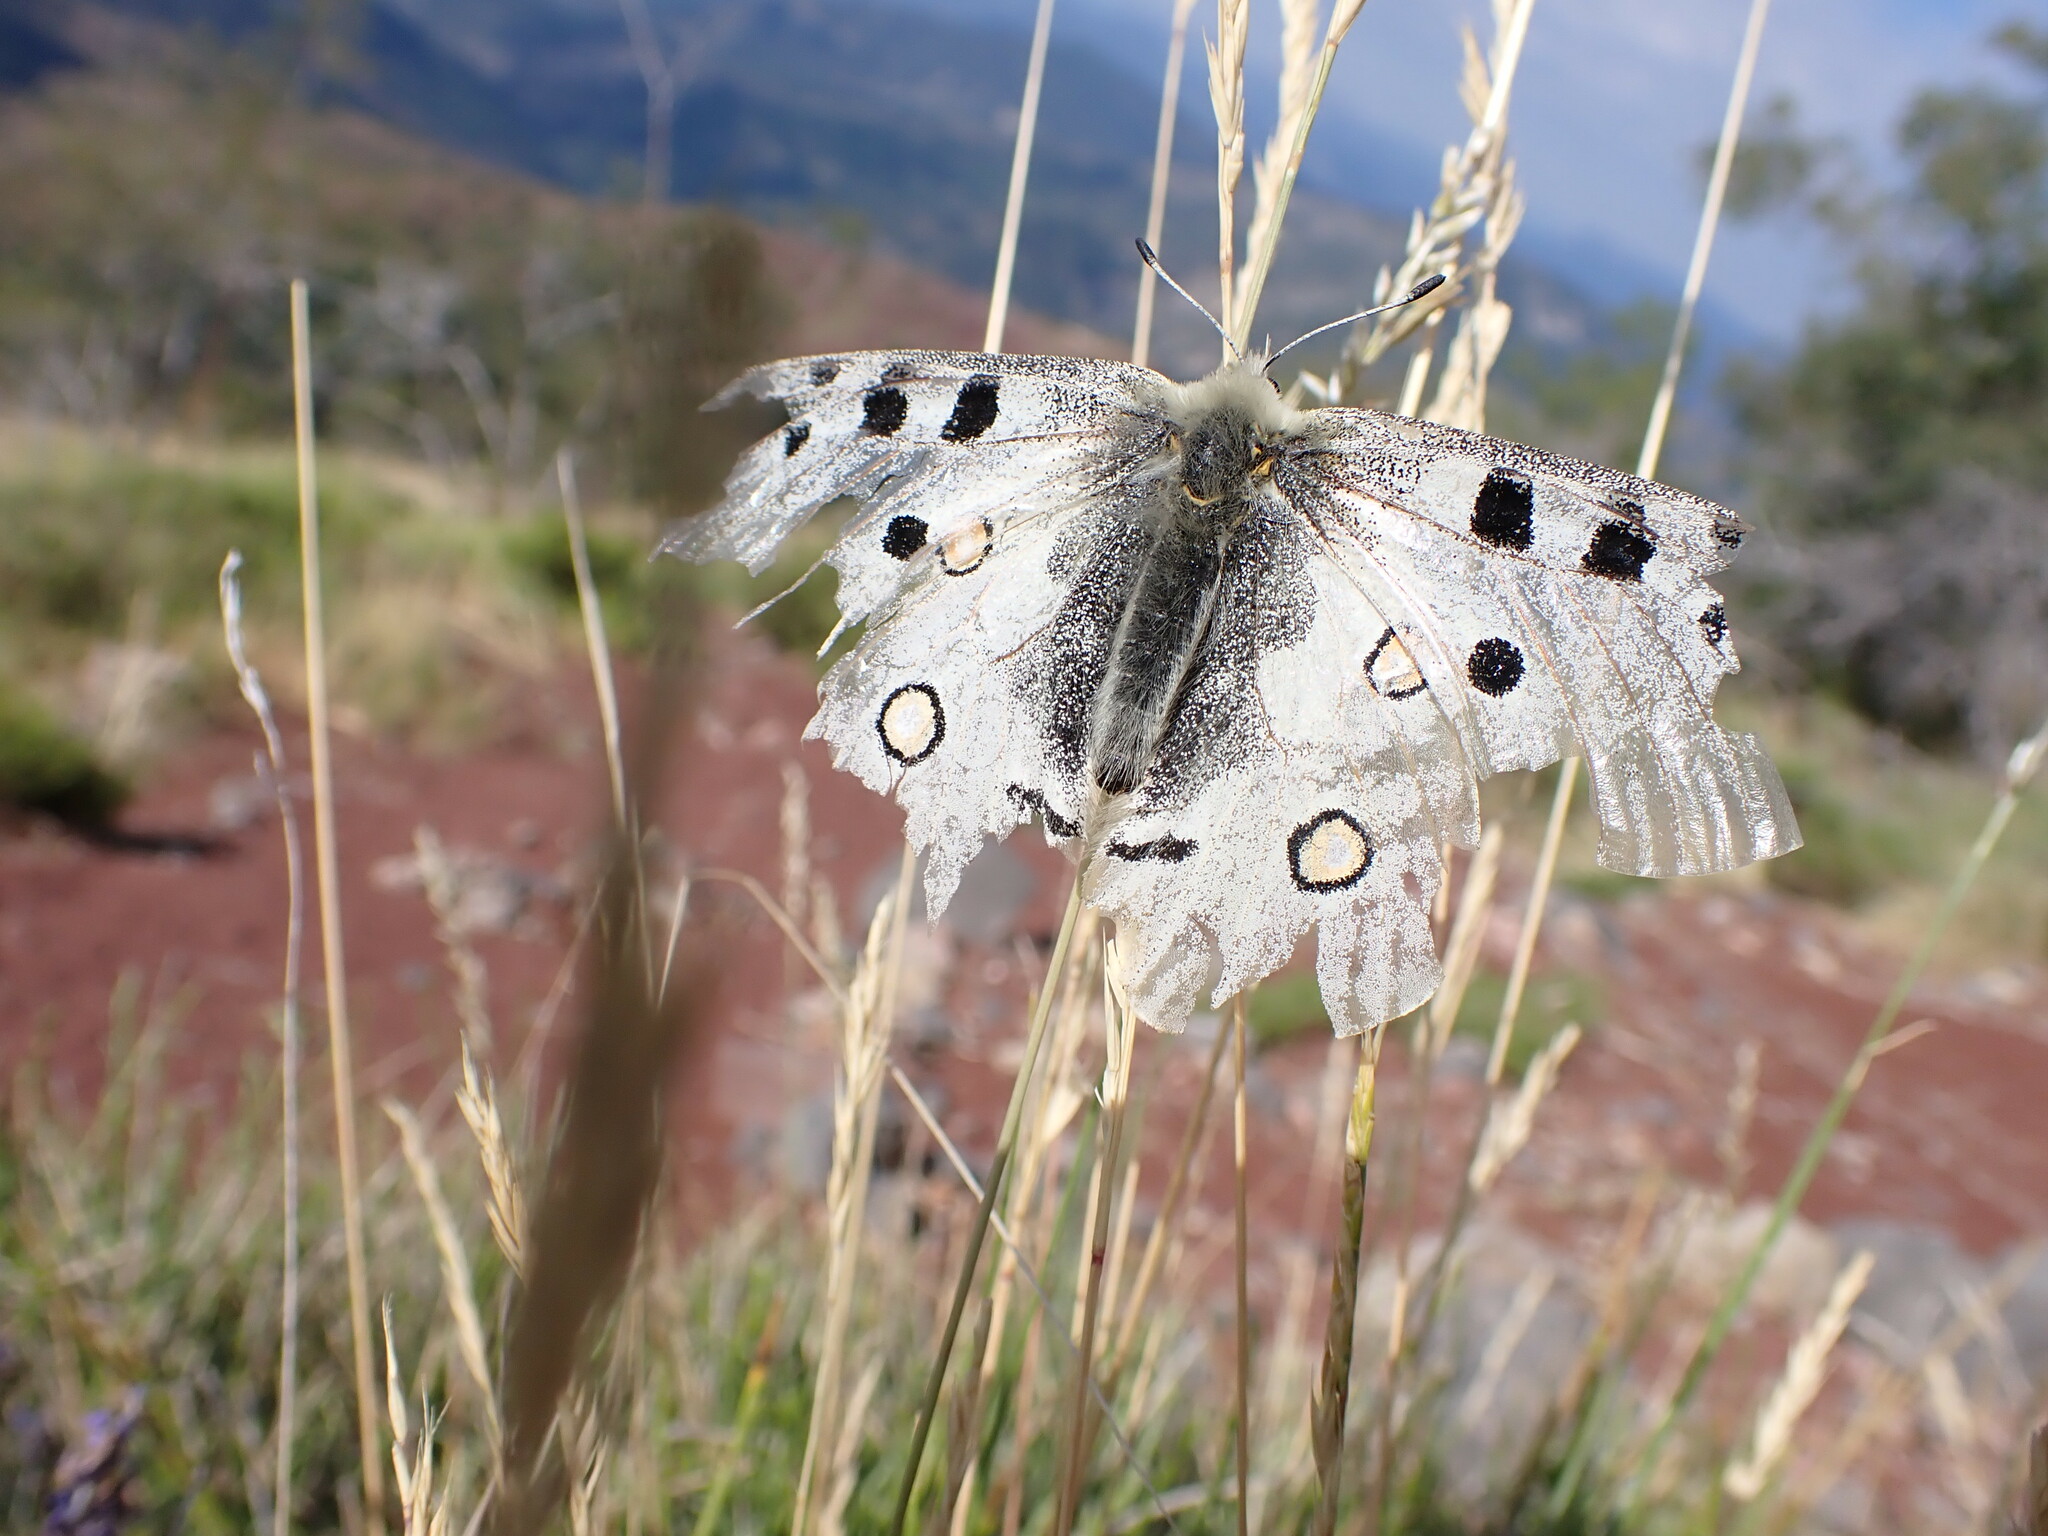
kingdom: Animalia
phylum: Arthropoda
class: Insecta
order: Lepidoptera
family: Papilionidae
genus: Parnassius
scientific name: Parnassius apollo
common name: Apollo
